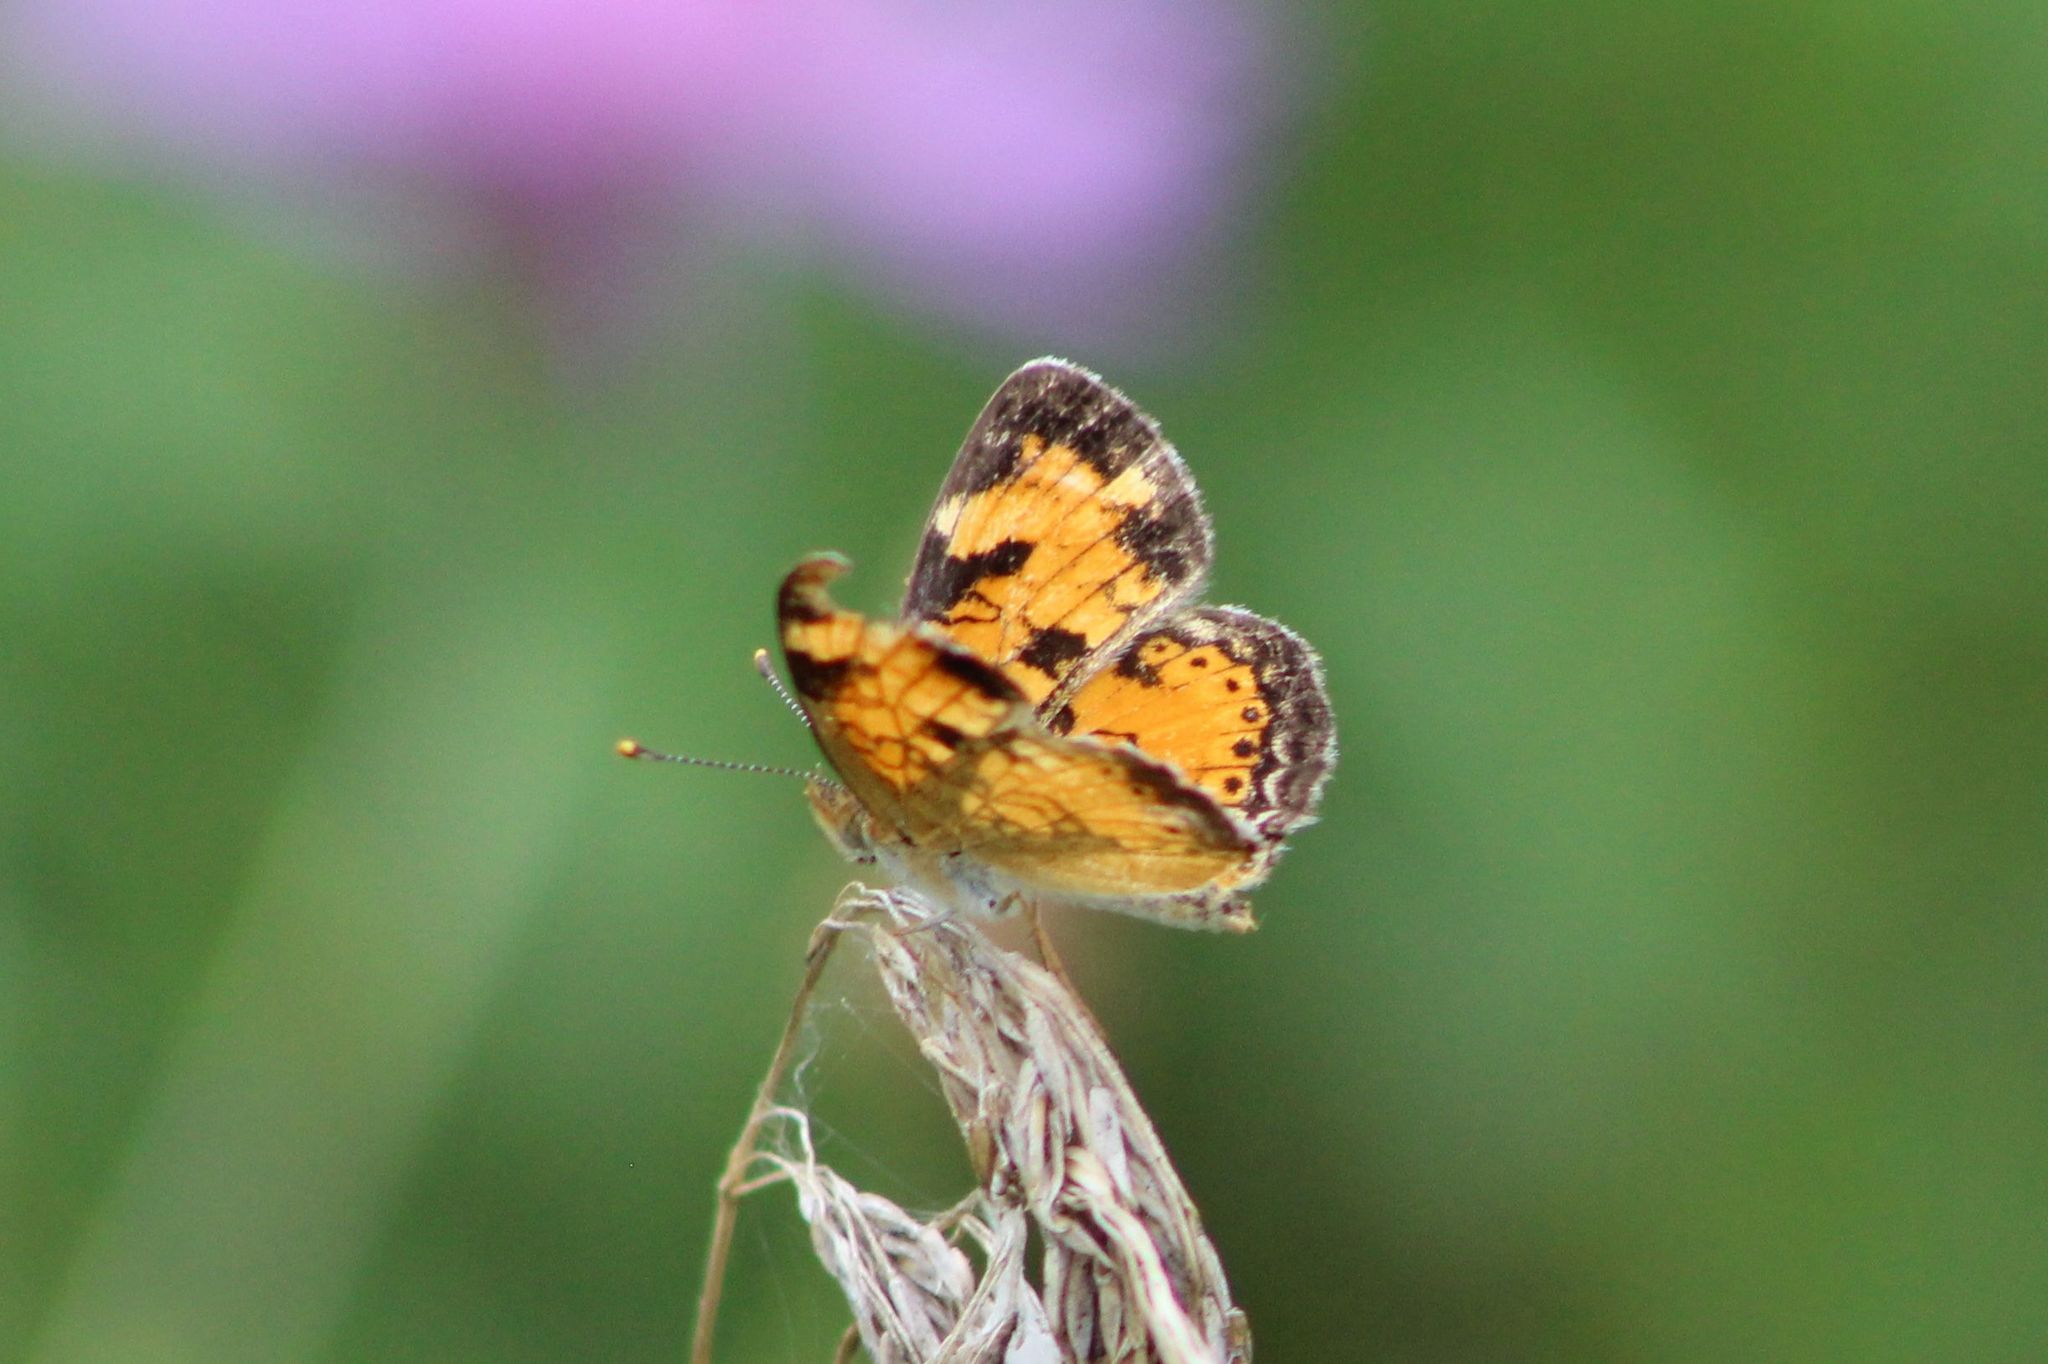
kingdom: Animalia
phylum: Arthropoda
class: Insecta
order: Lepidoptera
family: Nymphalidae
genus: Phyciodes
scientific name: Phyciodes tharos
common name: Pearl crescent
